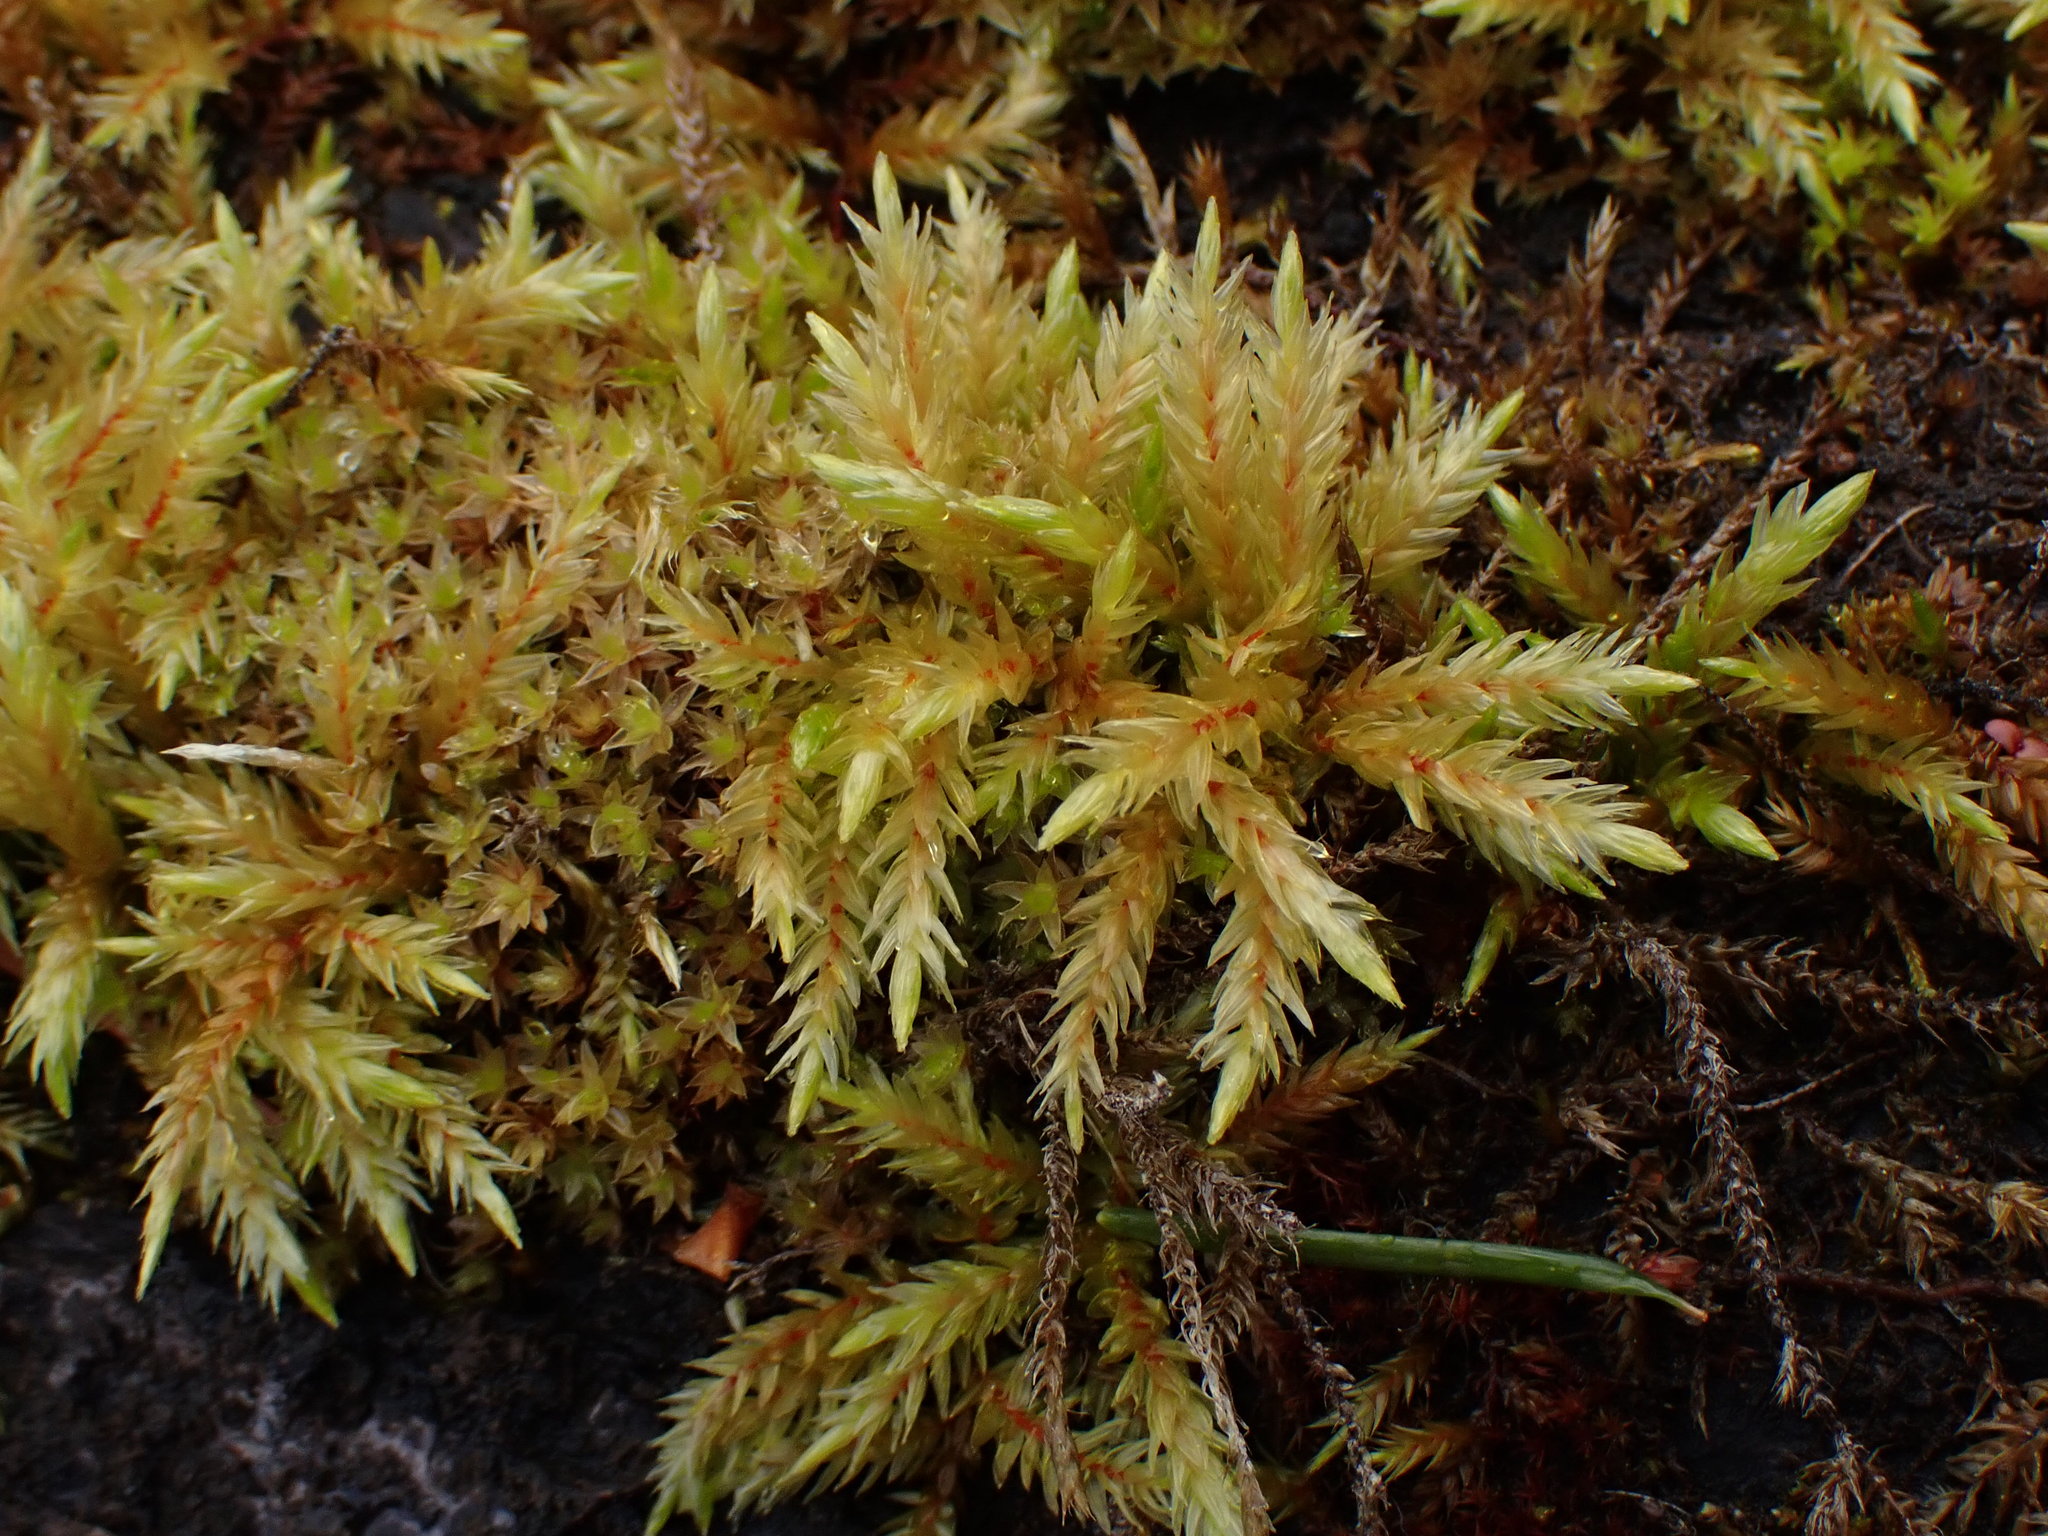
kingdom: Plantae
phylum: Bryophyta
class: Bryopsida
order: Hypnales
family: Climaciaceae
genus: Climacium
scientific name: Climacium dendroides
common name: Northern tree moss
